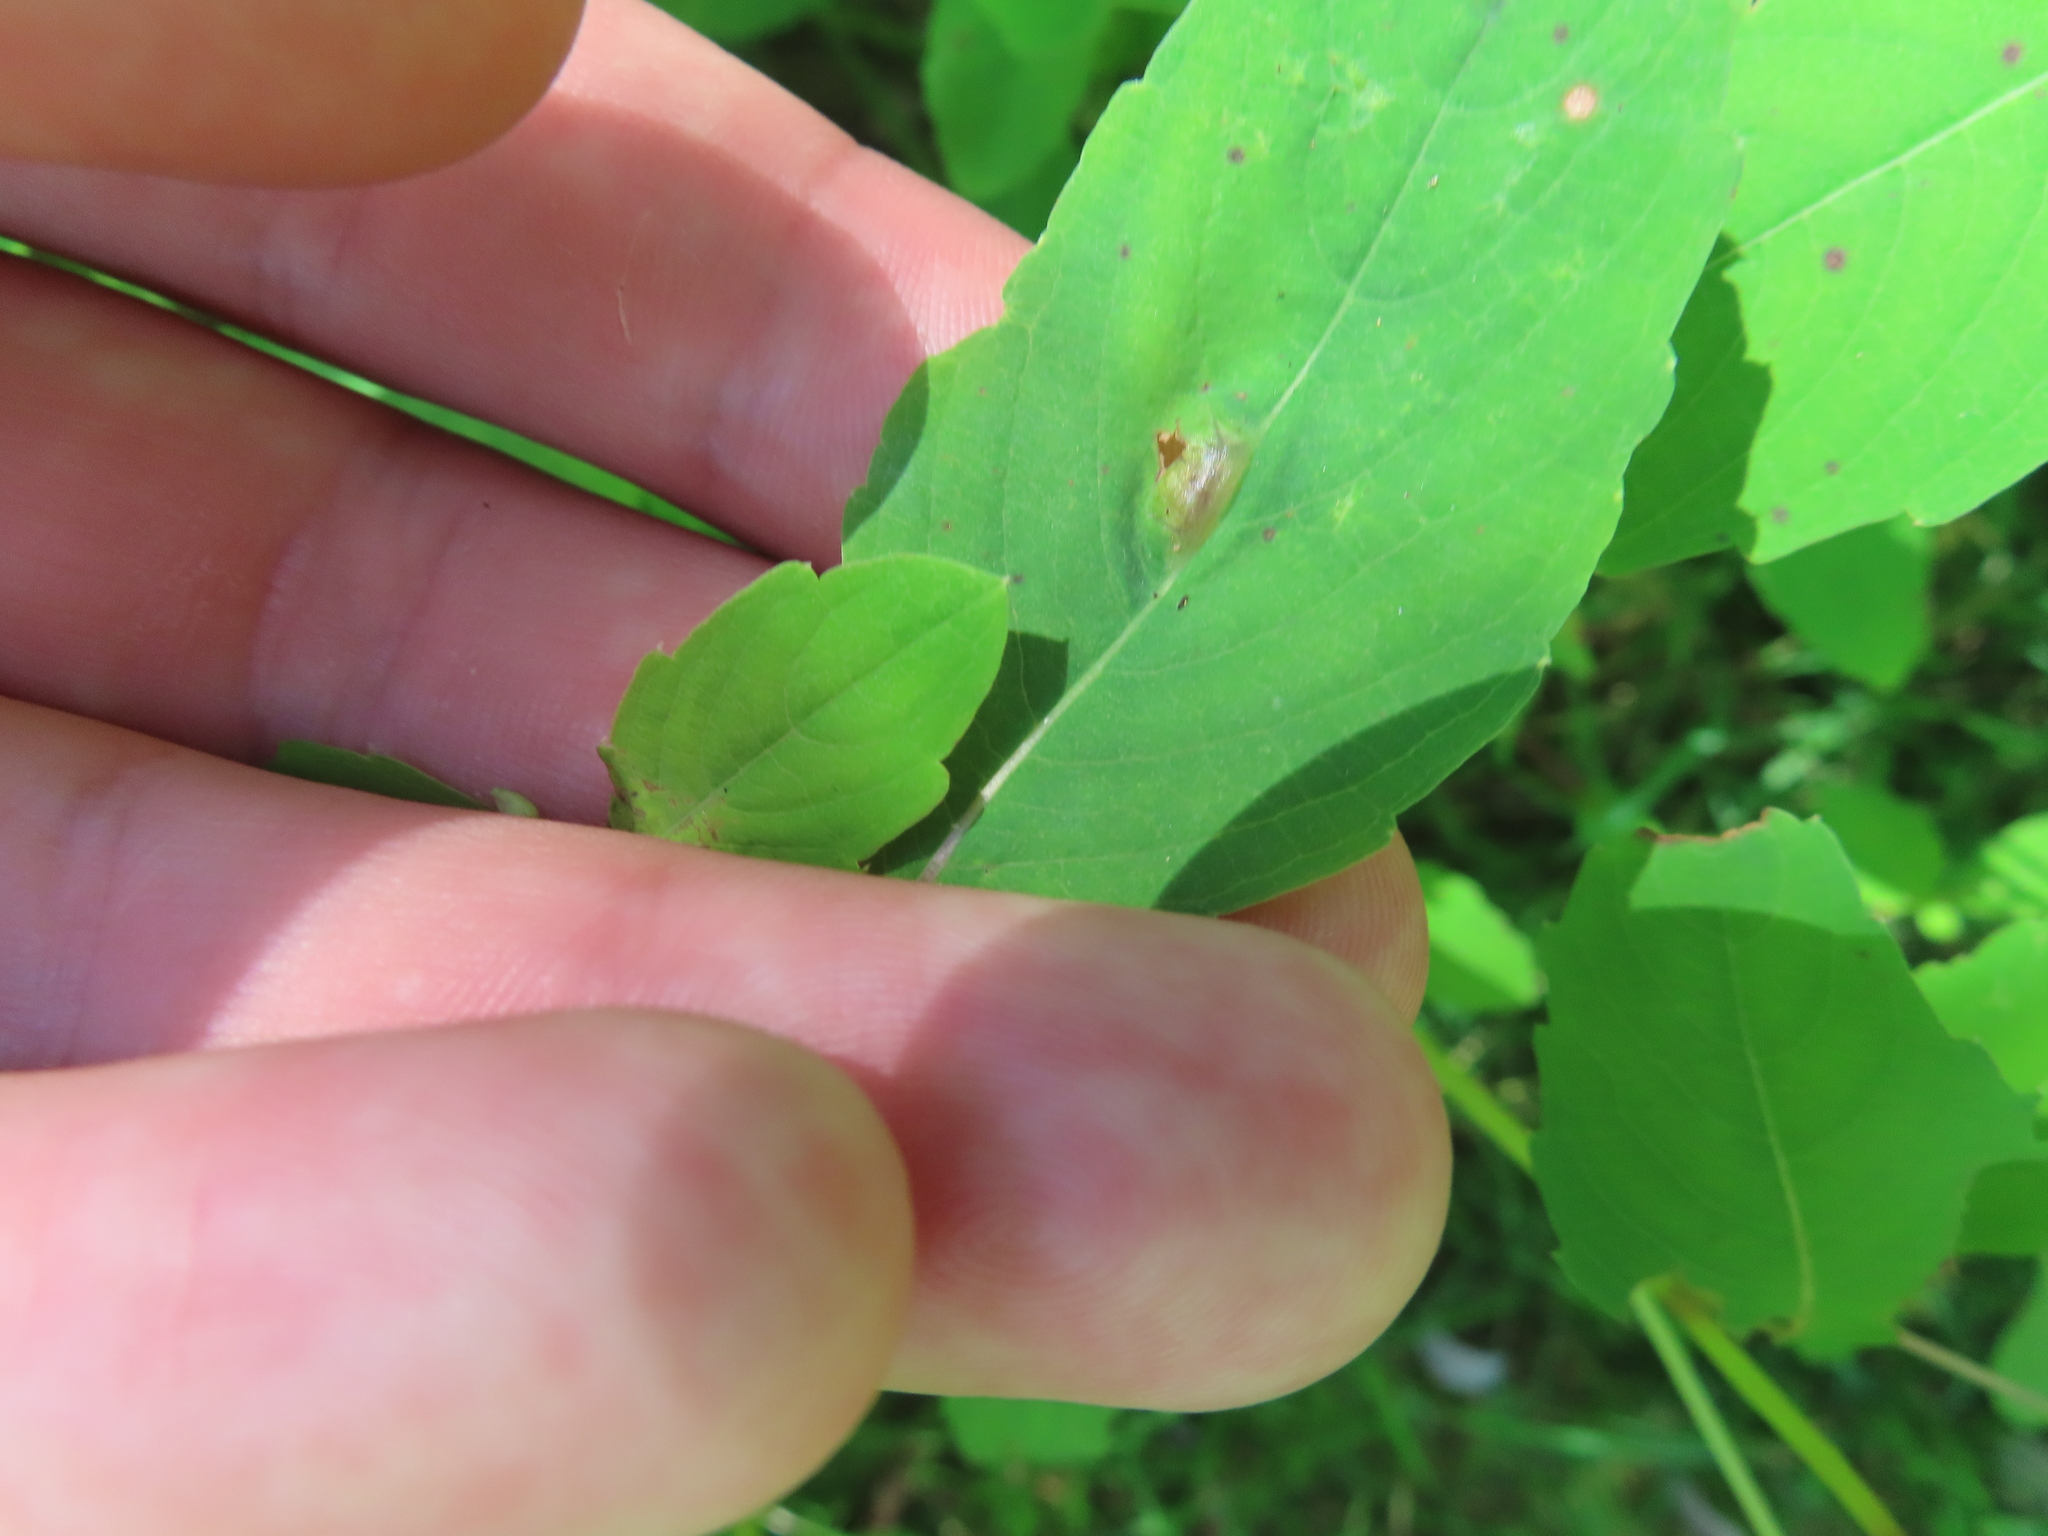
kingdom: Animalia
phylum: Arthropoda
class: Insecta
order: Diptera
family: Cecidomyiidae
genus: Neolasioptera
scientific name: Neolasioptera impatientifolia
